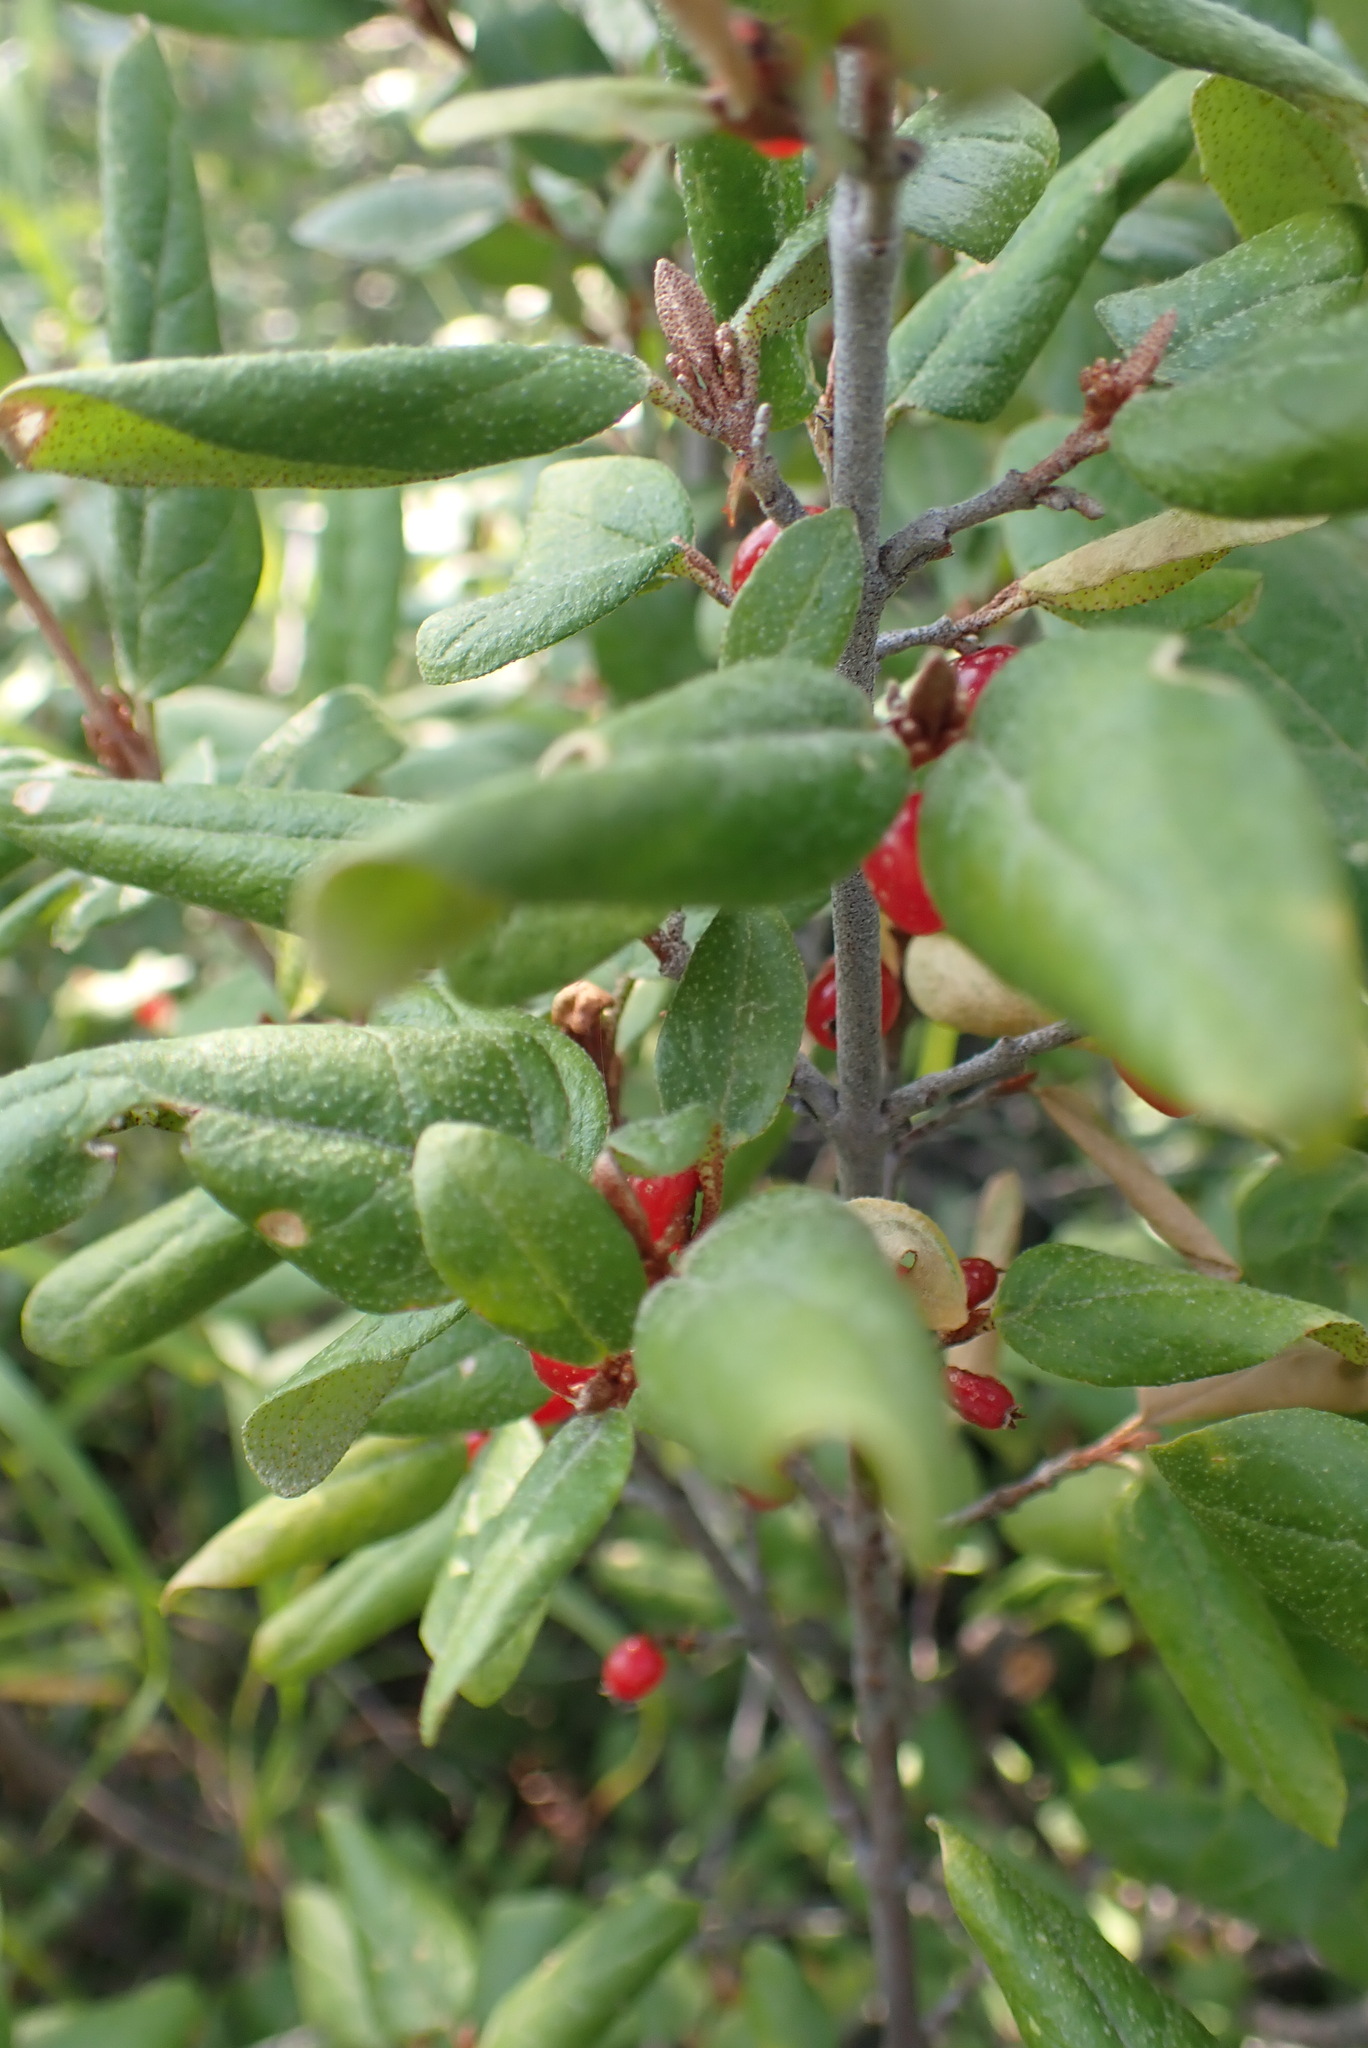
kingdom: Plantae
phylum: Tracheophyta
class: Magnoliopsida
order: Rosales
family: Elaeagnaceae
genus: Shepherdia
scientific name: Shepherdia canadensis
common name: Soapberry
